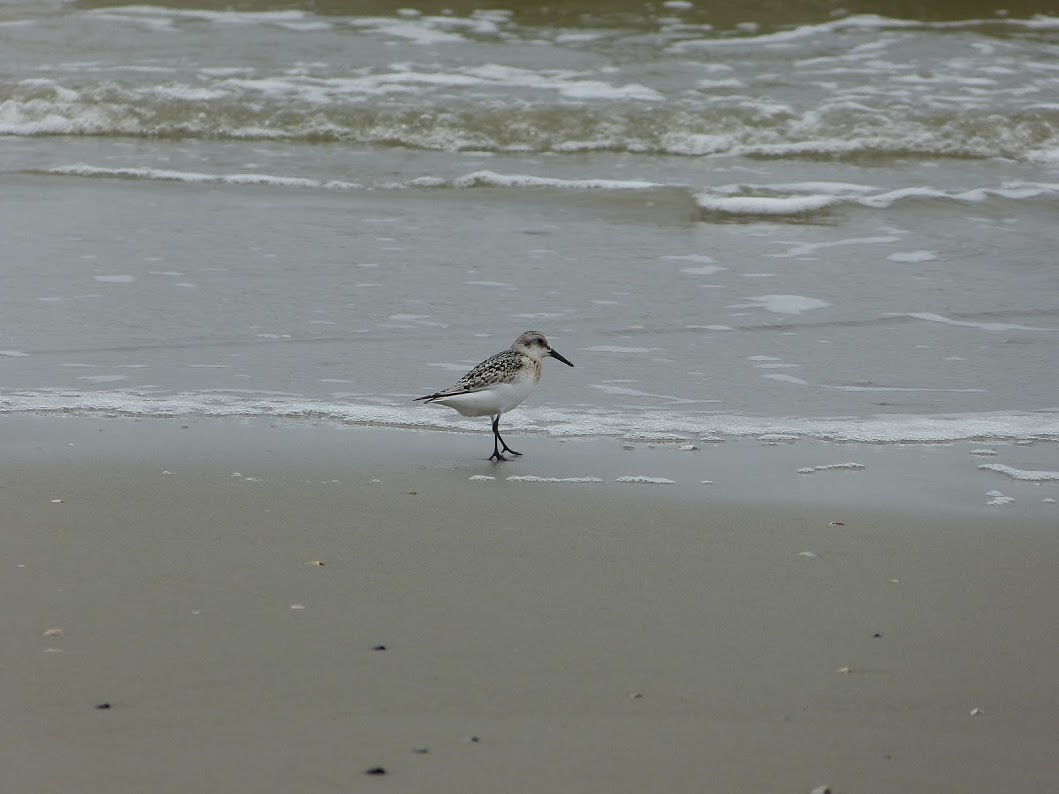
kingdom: Animalia
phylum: Chordata
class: Aves
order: Charadriiformes
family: Scolopacidae
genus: Calidris
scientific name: Calidris alba
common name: Sanderling
